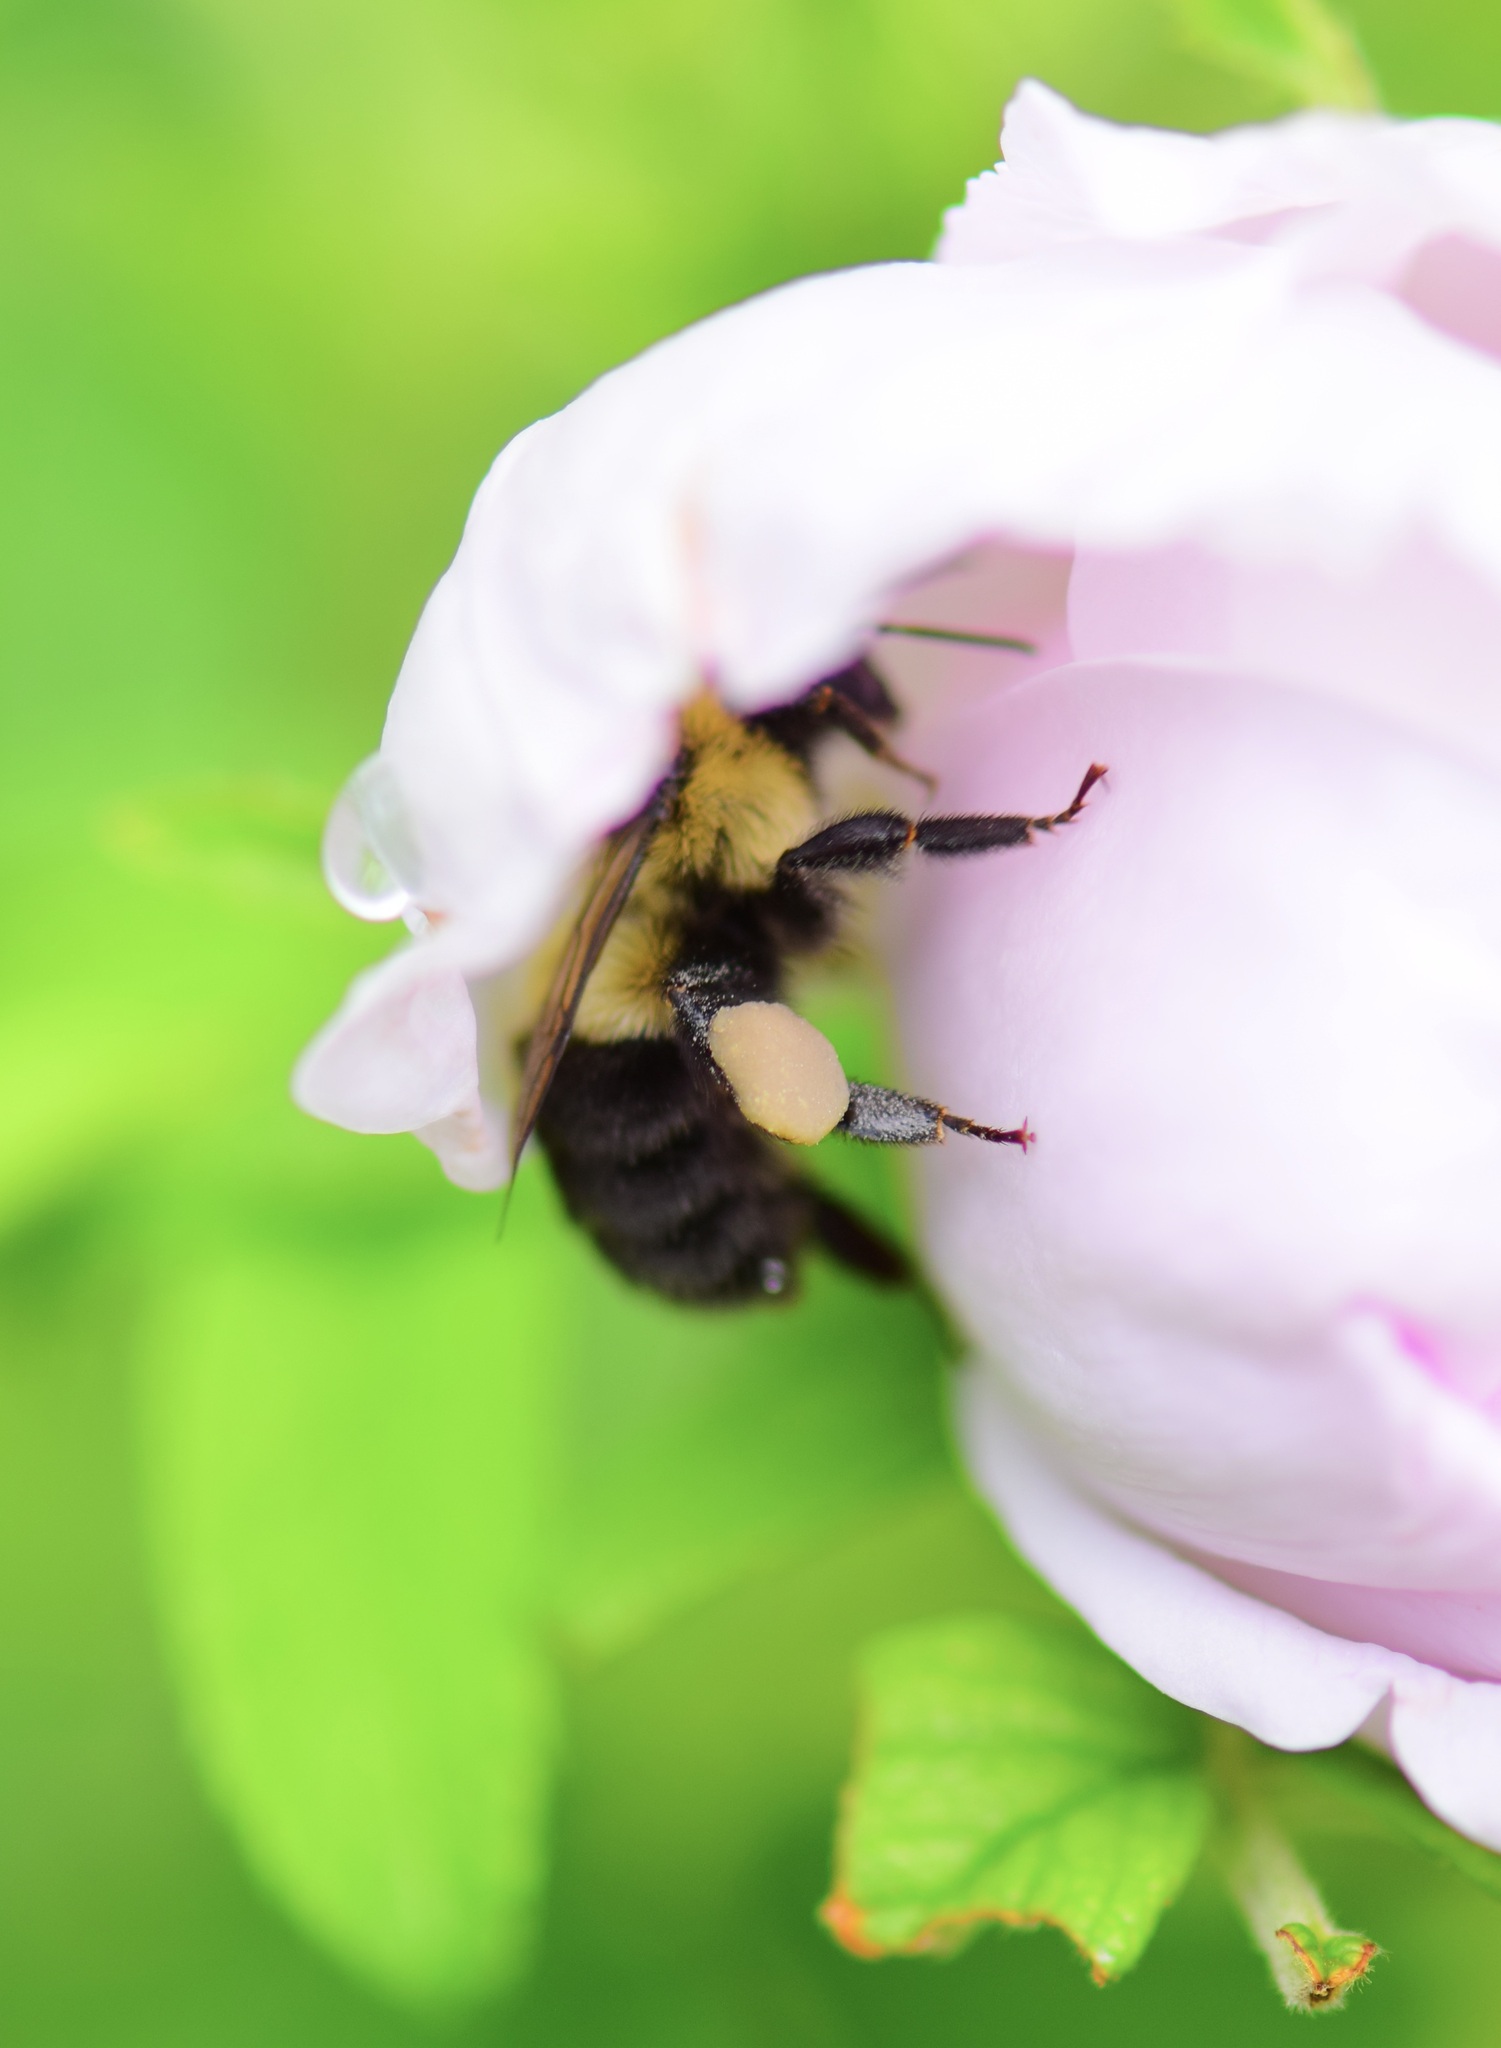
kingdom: Animalia
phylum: Arthropoda
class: Insecta
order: Hymenoptera
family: Apidae
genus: Bombus
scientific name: Bombus impatiens
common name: Common eastern bumble bee
